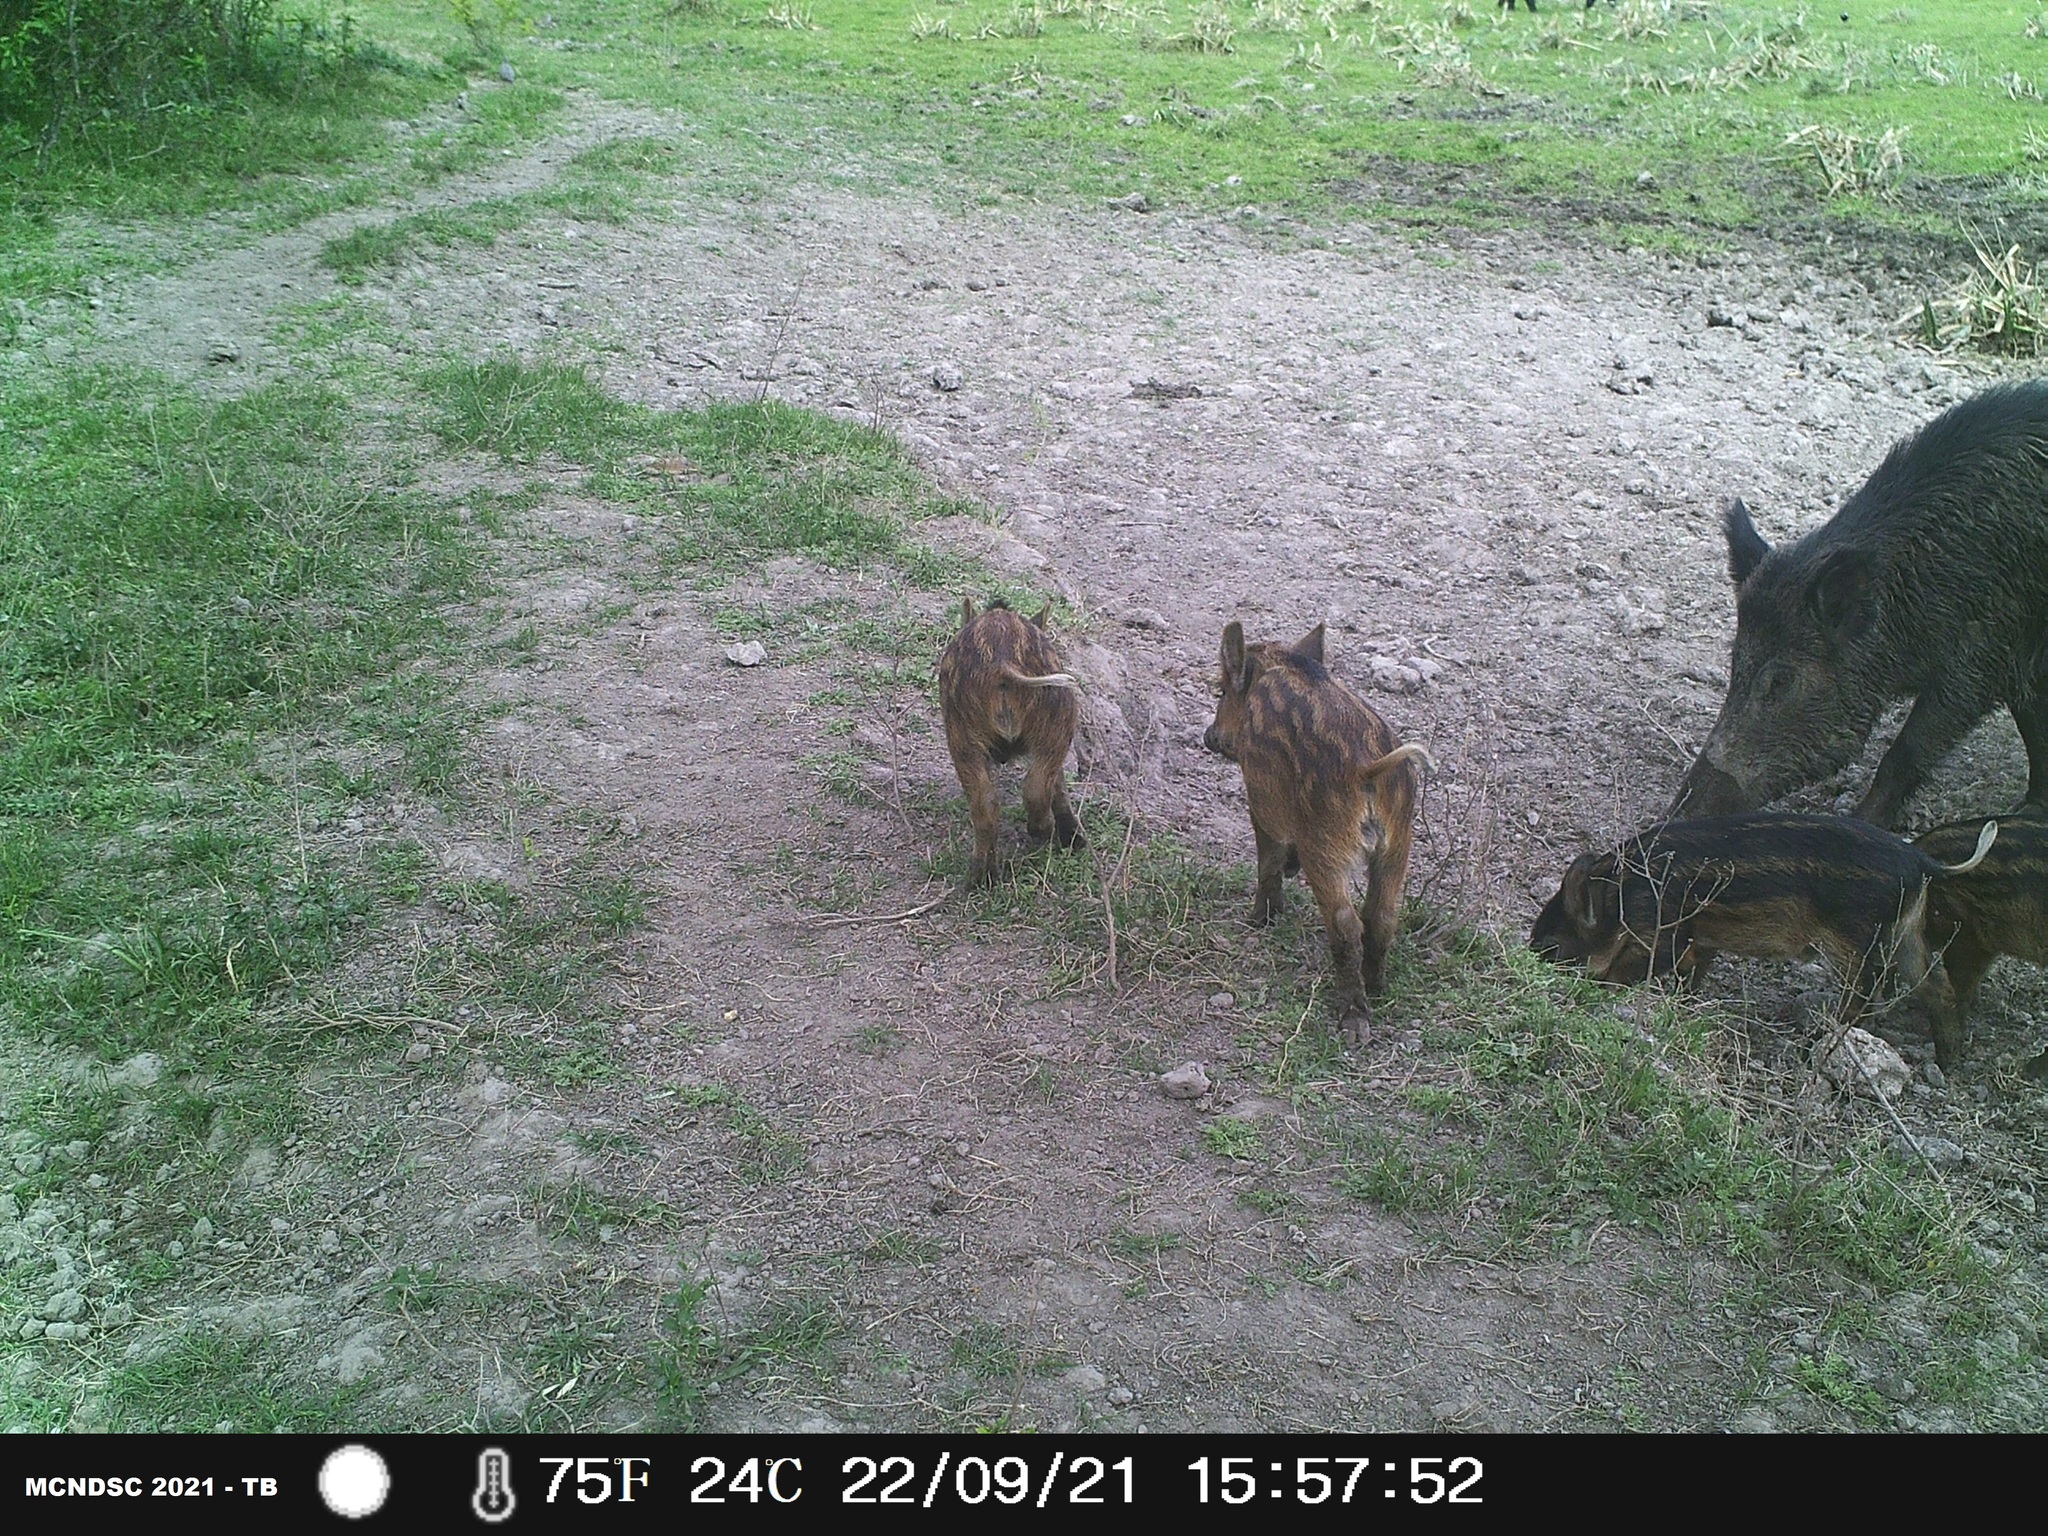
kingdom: Animalia
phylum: Chordata
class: Mammalia
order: Artiodactyla
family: Suidae
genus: Sus
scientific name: Sus scrofa
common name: Wild boar
